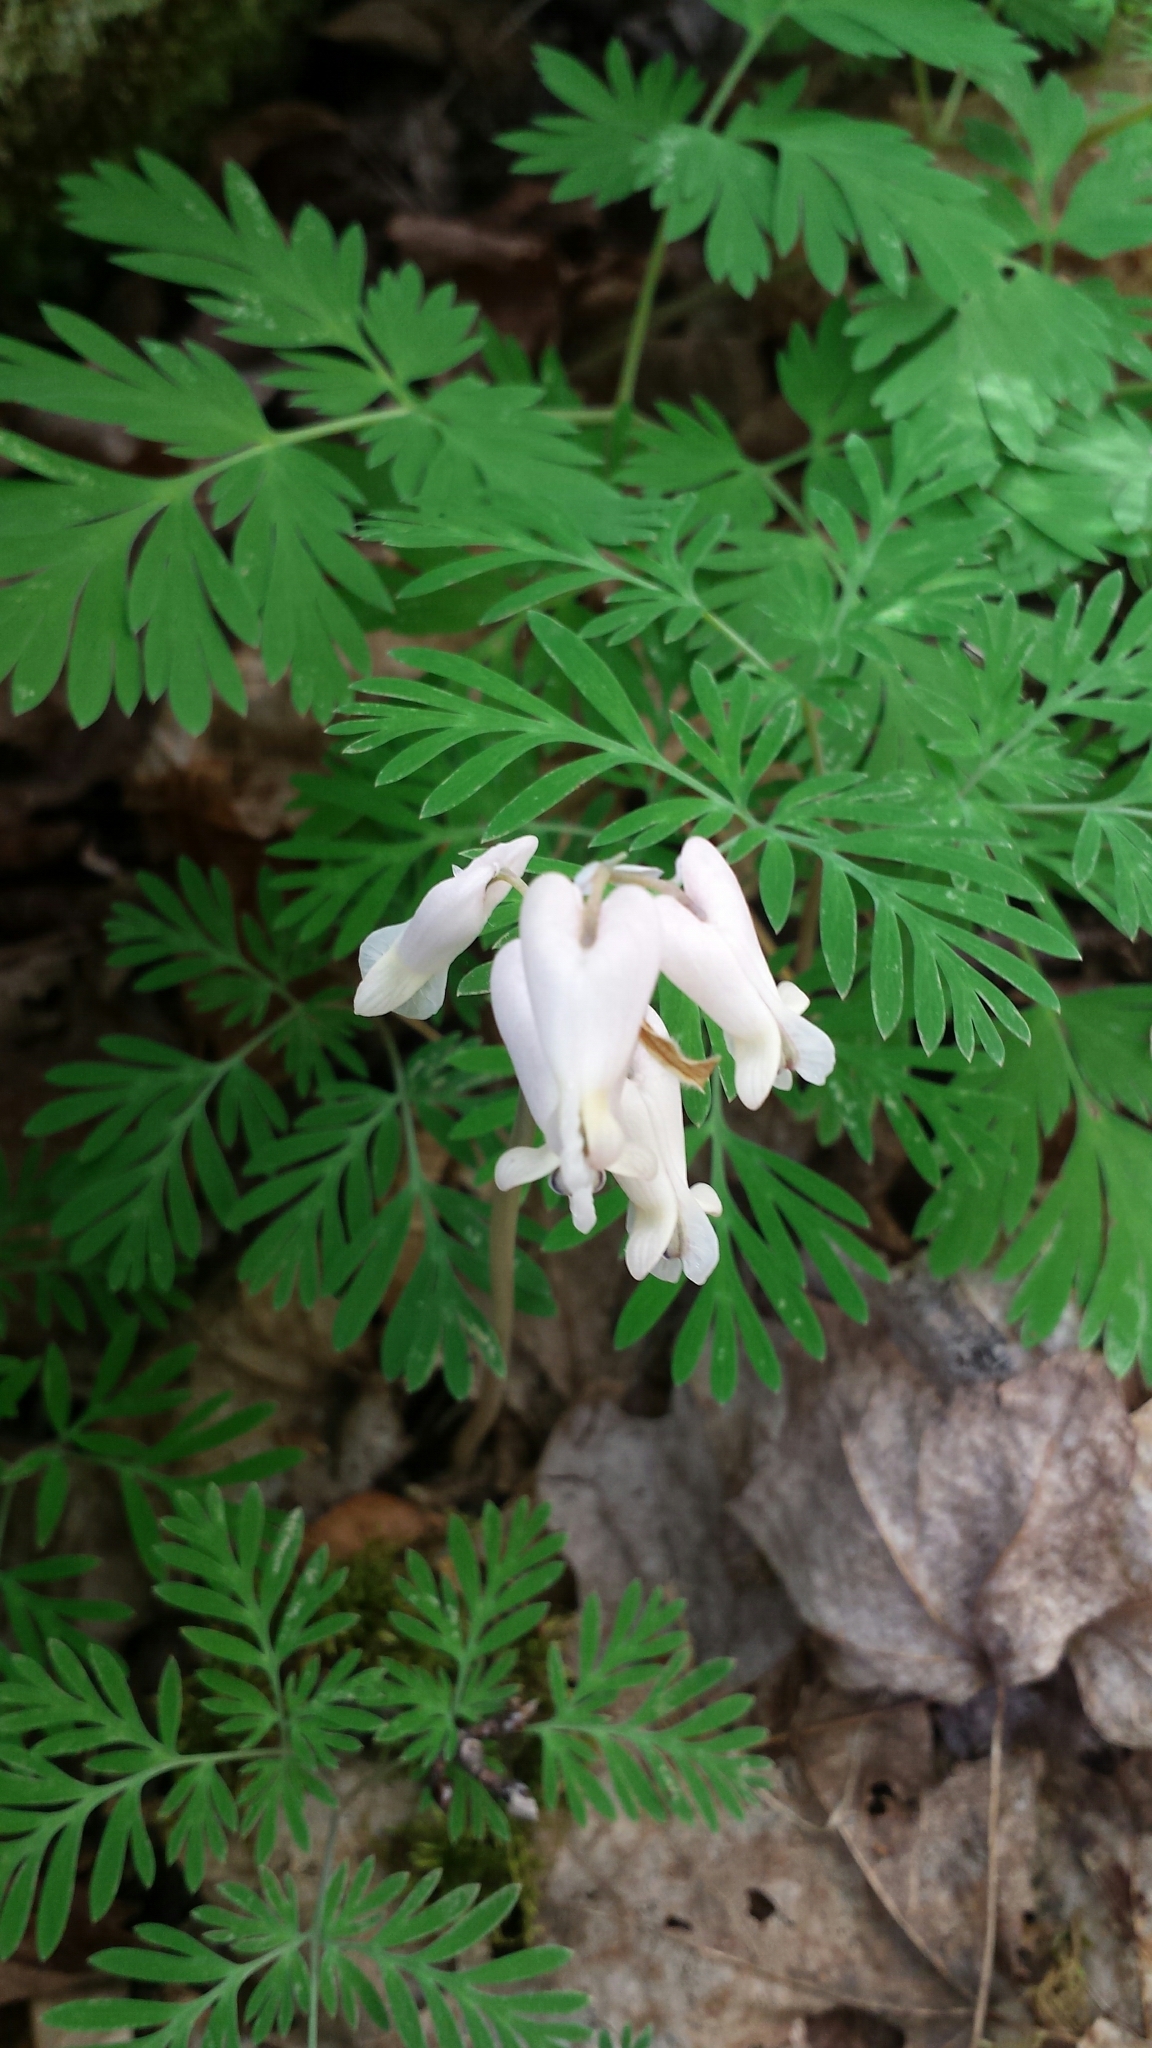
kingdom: Plantae
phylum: Tracheophyta
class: Magnoliopsida
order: Ranunculales
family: Papaveraceae
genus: Dicentra
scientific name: Dicentra canadensis
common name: Squirrel-corn
